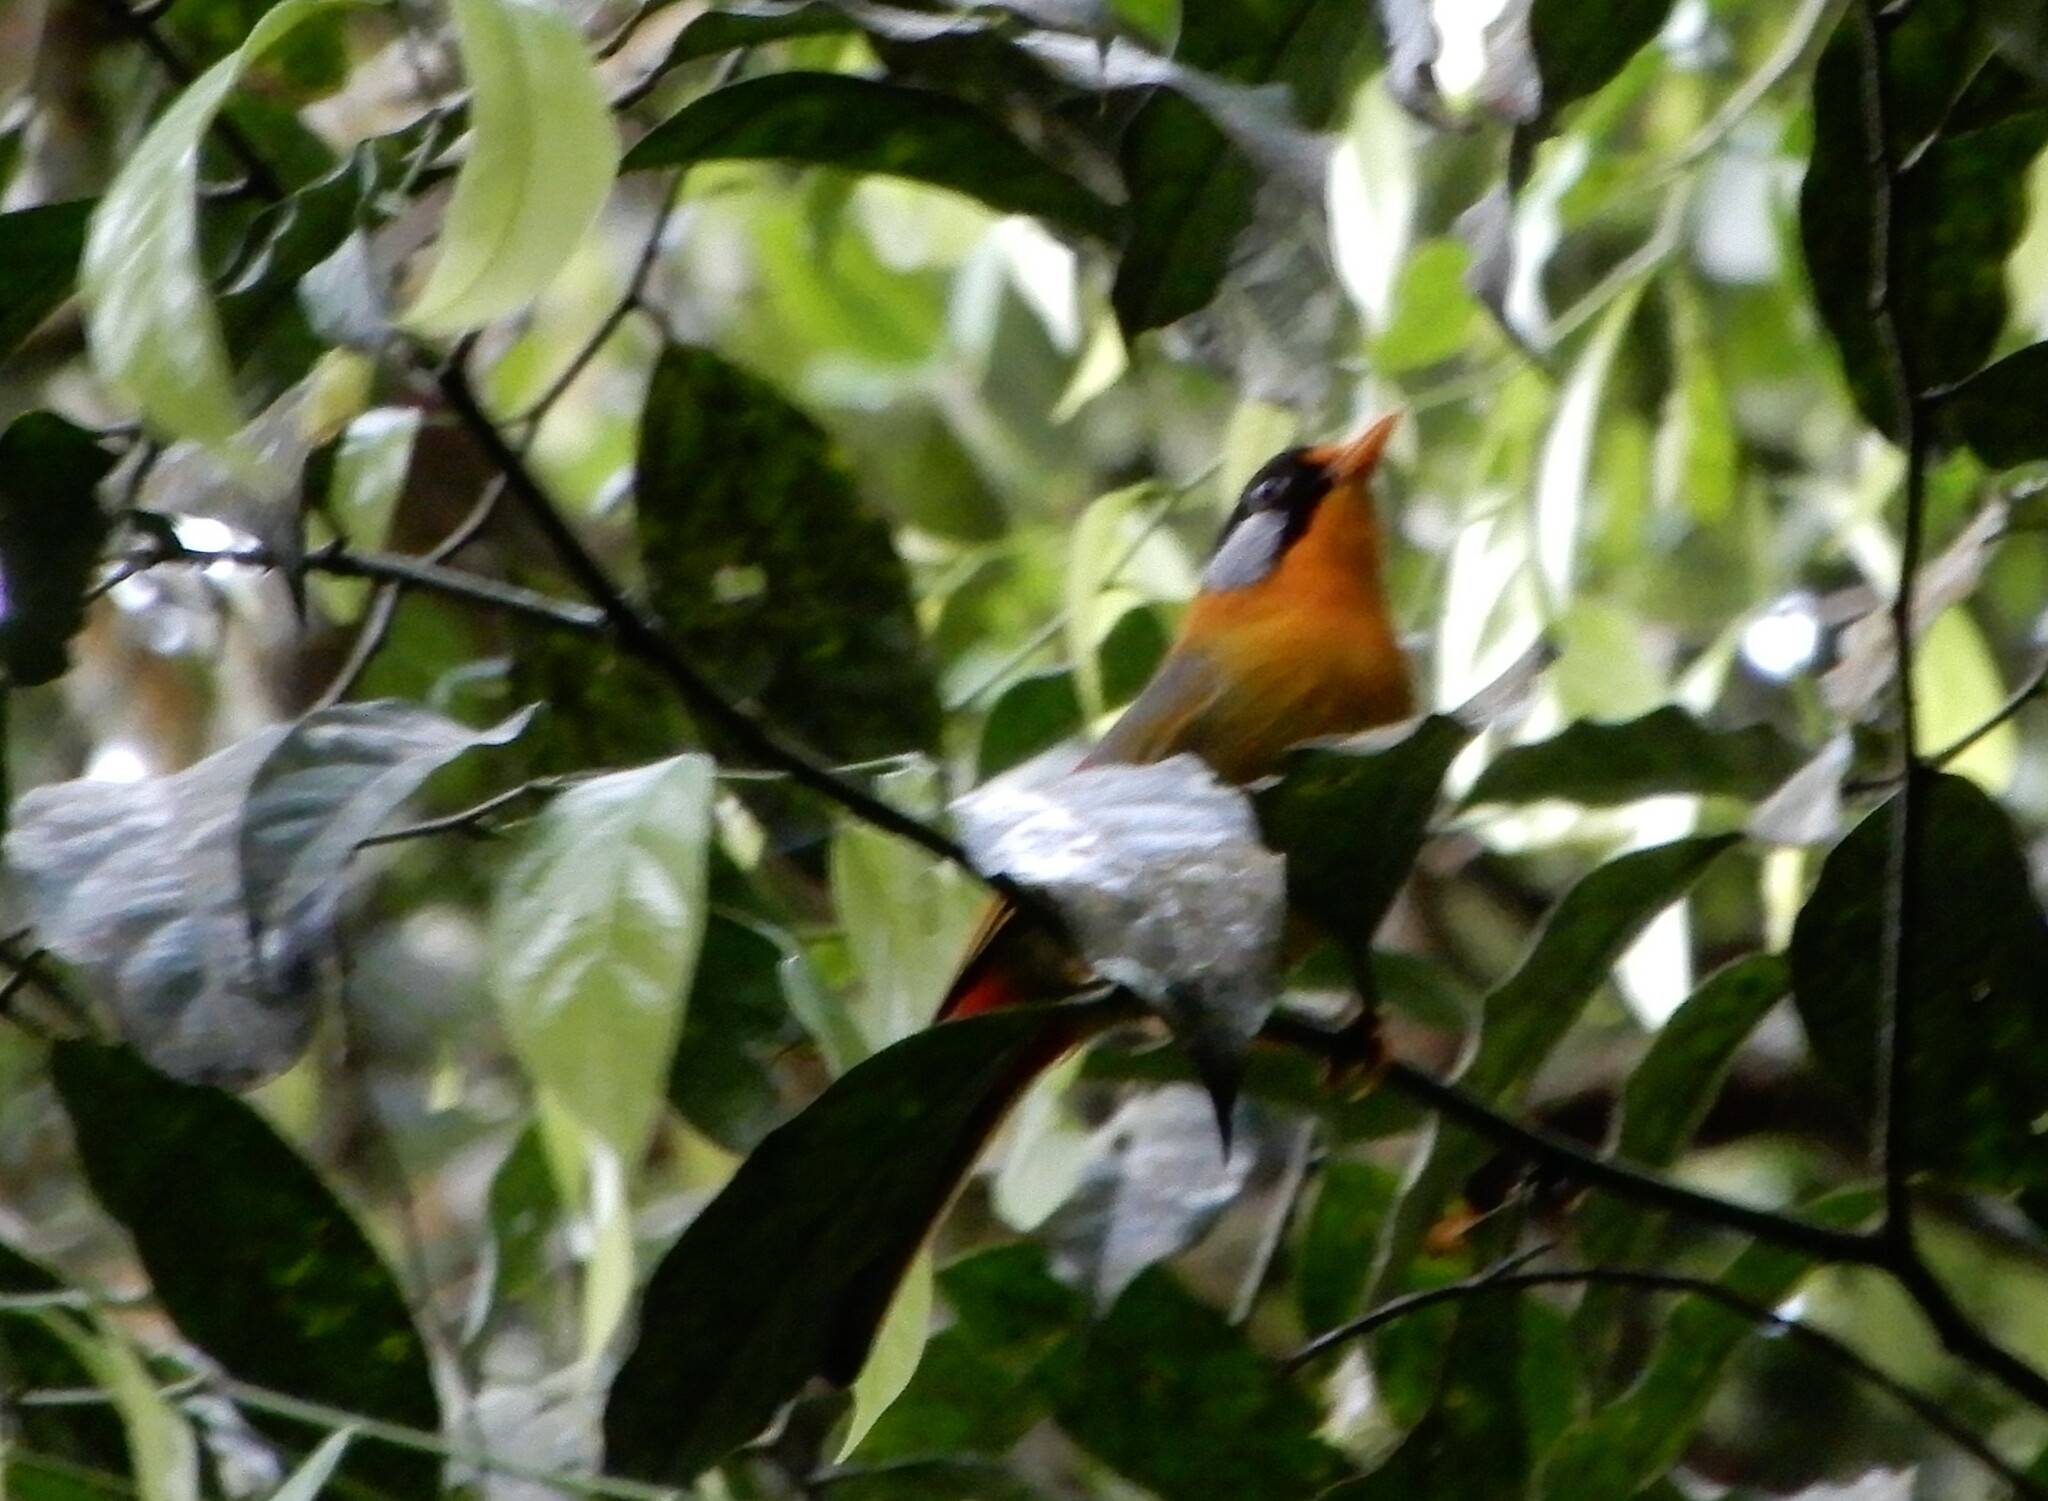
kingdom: Animalia
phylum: Chordata
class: Aves
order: Passeriformes
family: Leiothrichidae
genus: Leiothrix
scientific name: Leiothrix argentauris
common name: Silver-eared mesia
